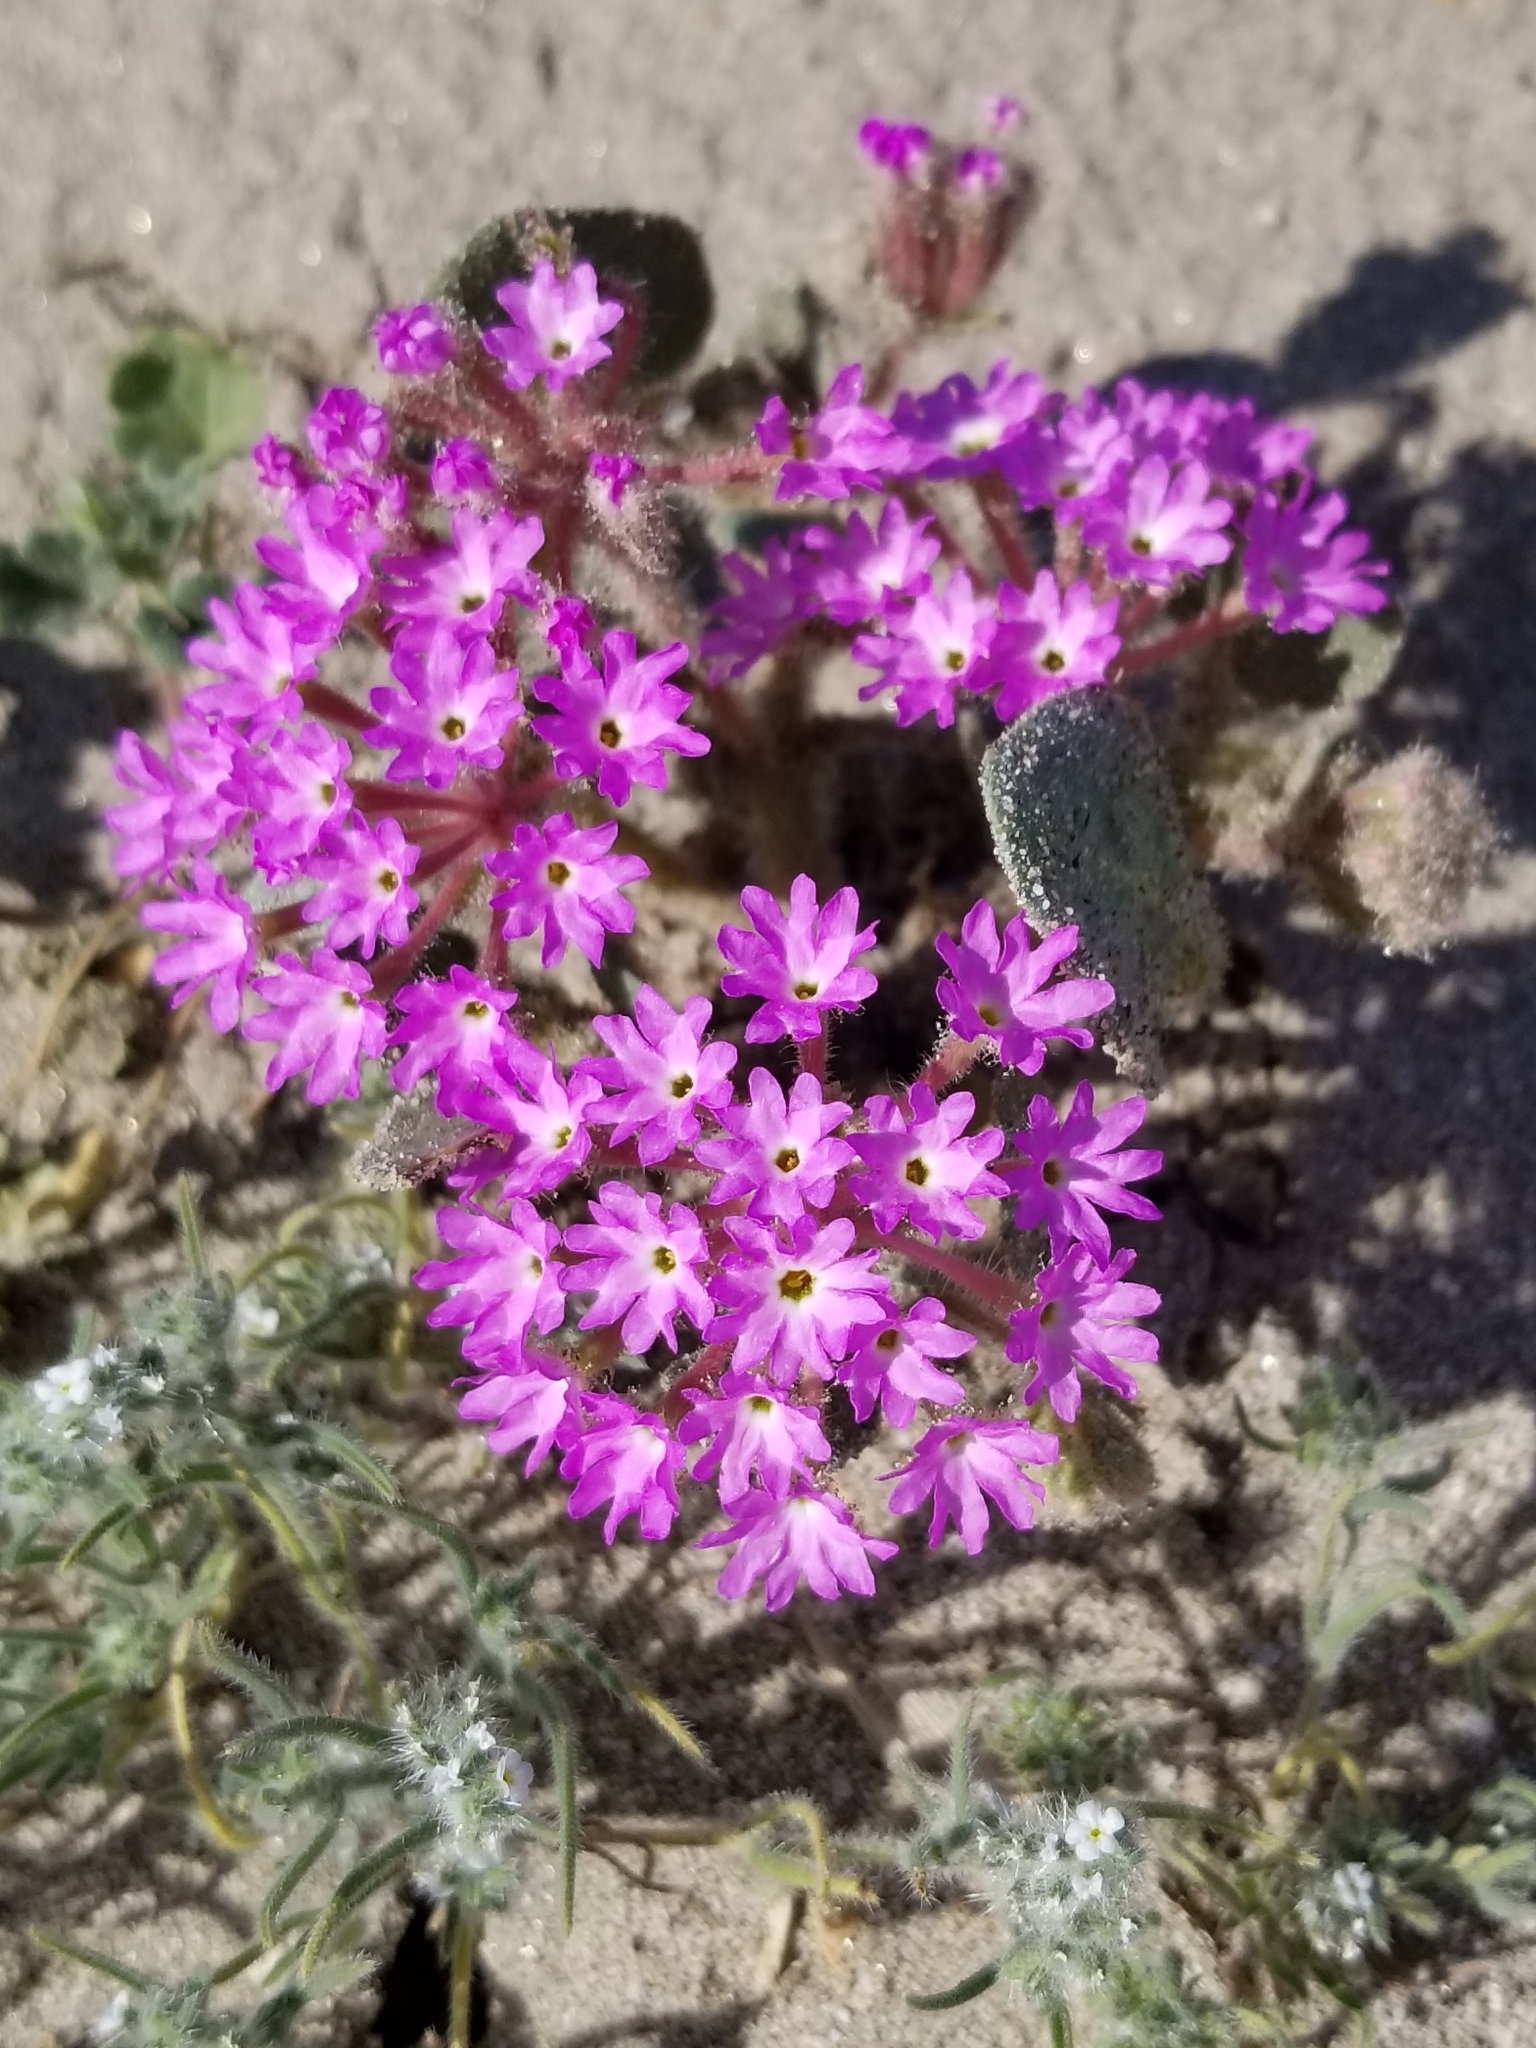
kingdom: Plantae
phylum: Tracheophyta
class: Magnoliopsida
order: Caryophyllales
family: Nyctaginaceae
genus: Abronia
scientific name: Abronia villosa
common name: Desert sand-verbena
